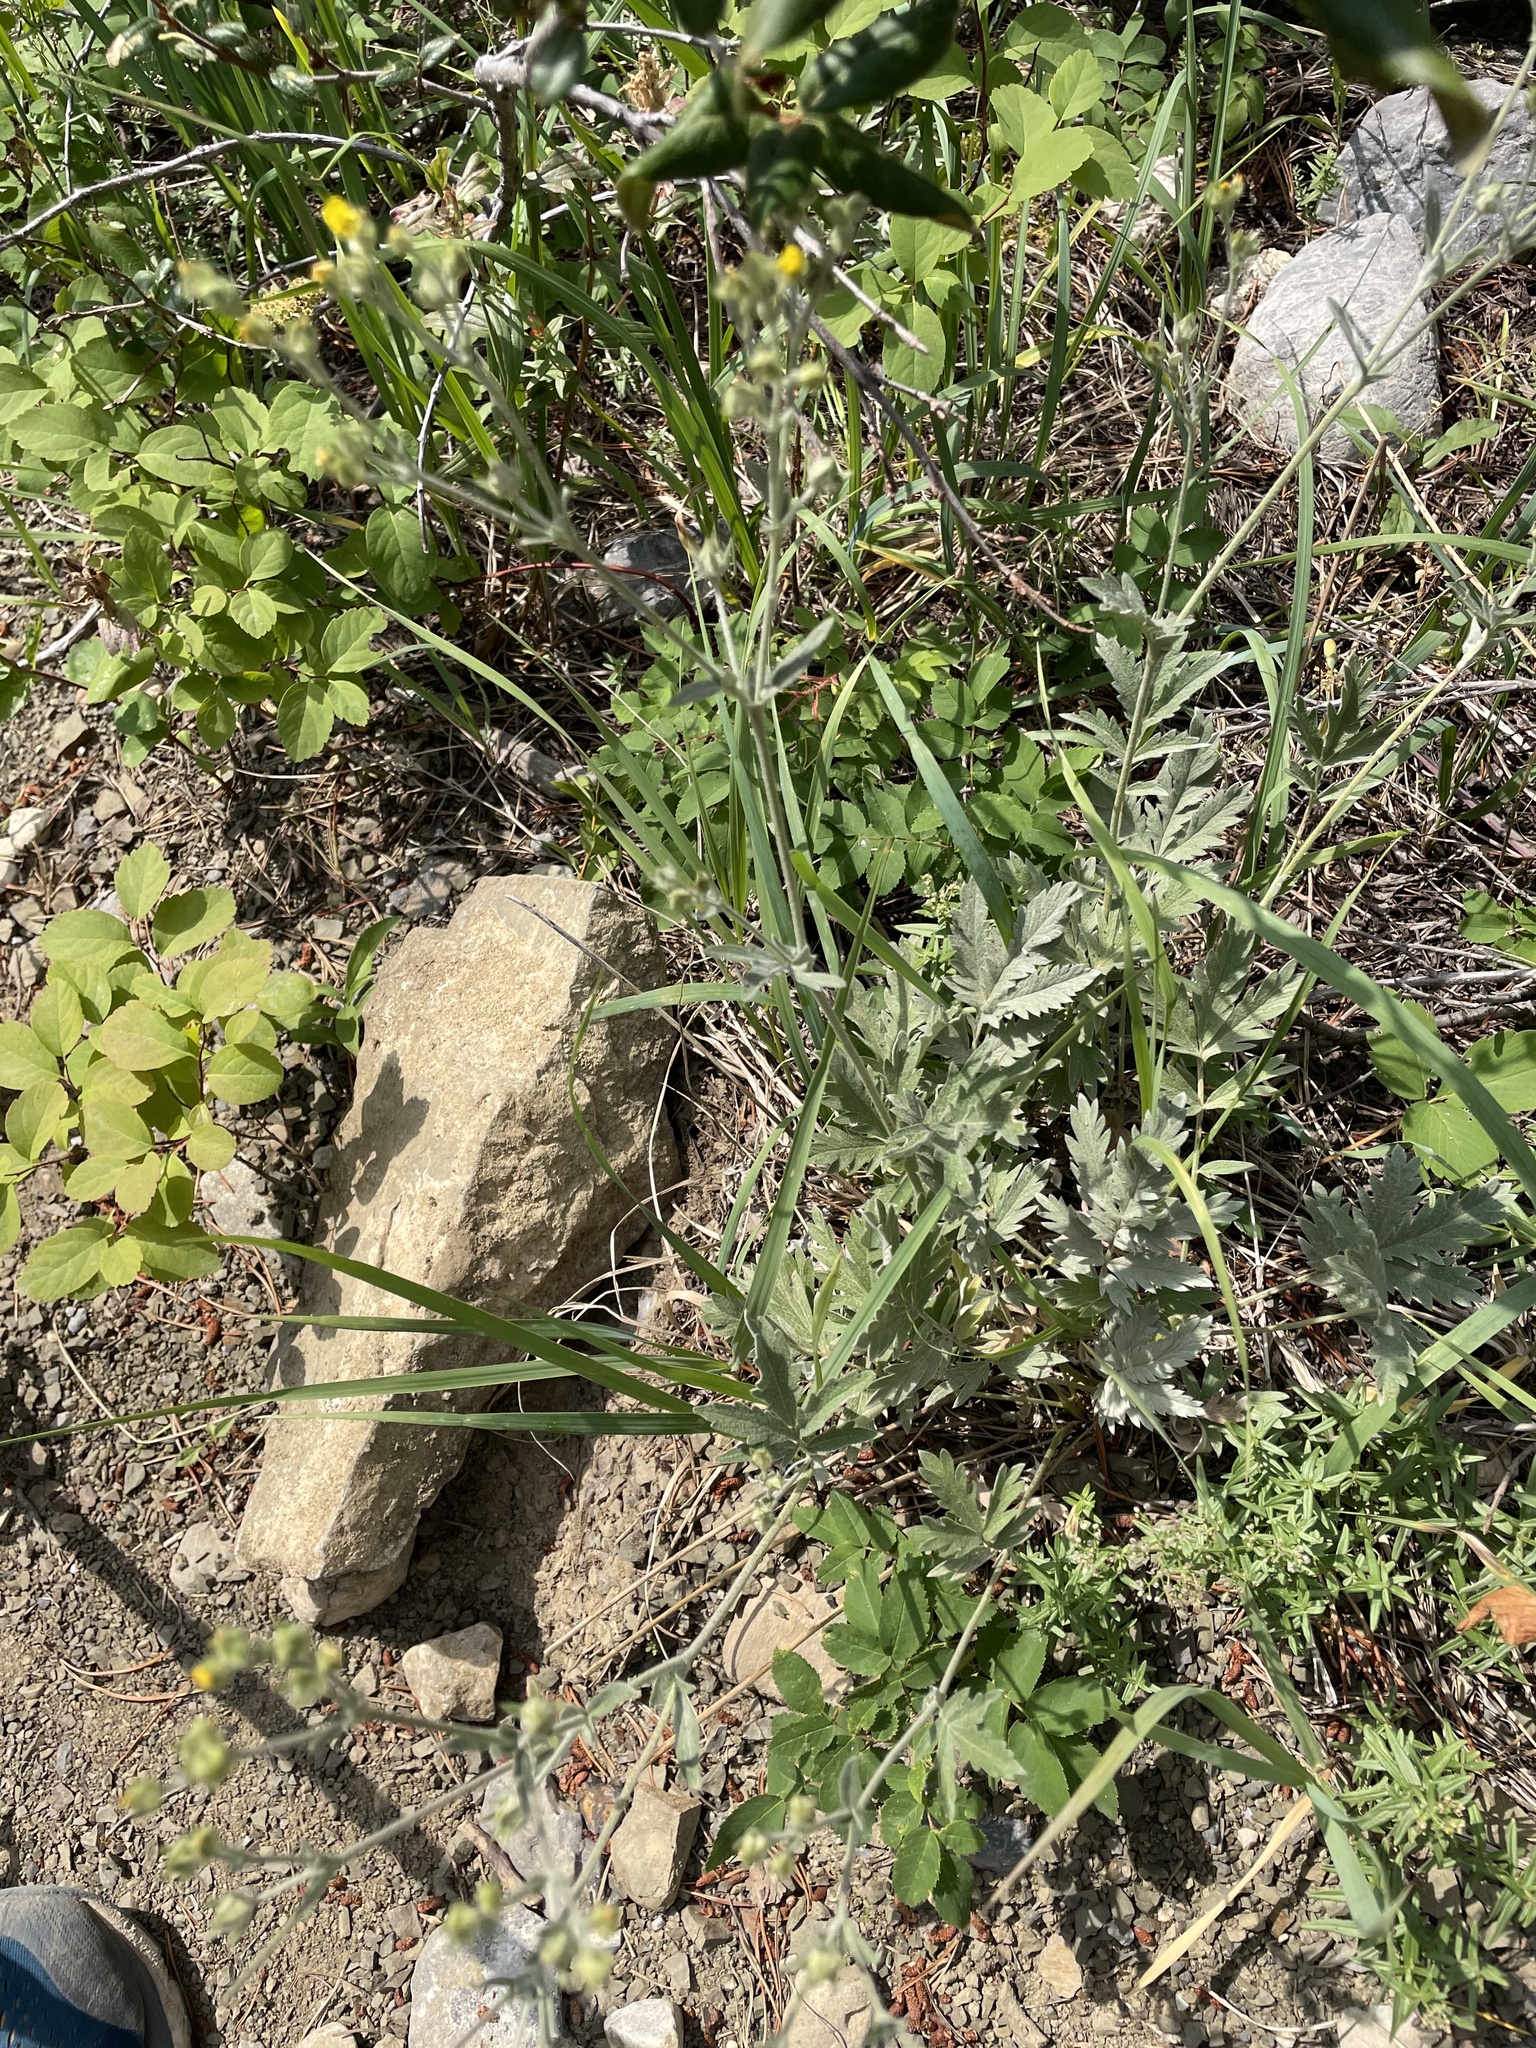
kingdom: Plantae
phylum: Tracheophyta
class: Magnoliopsida
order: Rosales
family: Rosaceae
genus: Potentilla
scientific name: Potentilla effusa
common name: Branched cinquefoil
